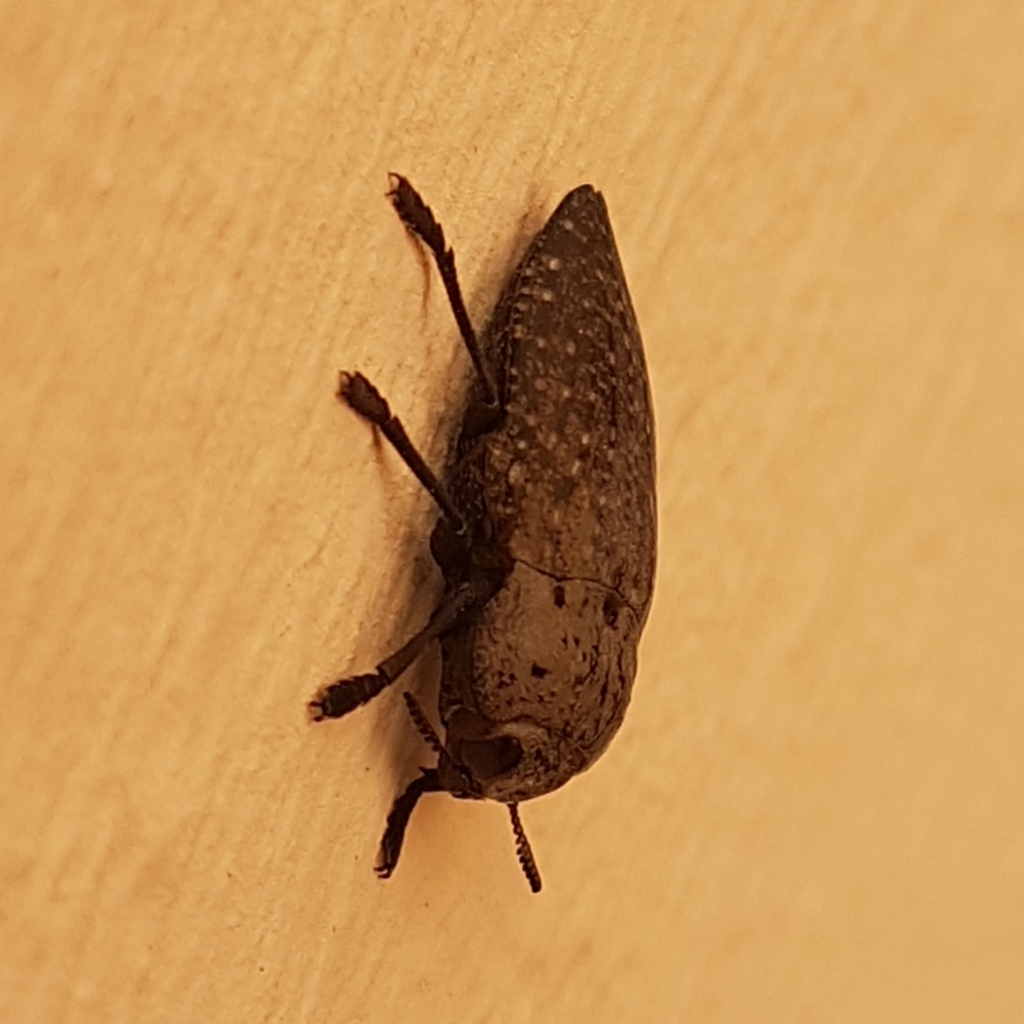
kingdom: Animalia
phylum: Arthropoda
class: Insecta
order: Coleoptera
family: Buprestidae
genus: Capnodis
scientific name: Capnodis tenebricosa
